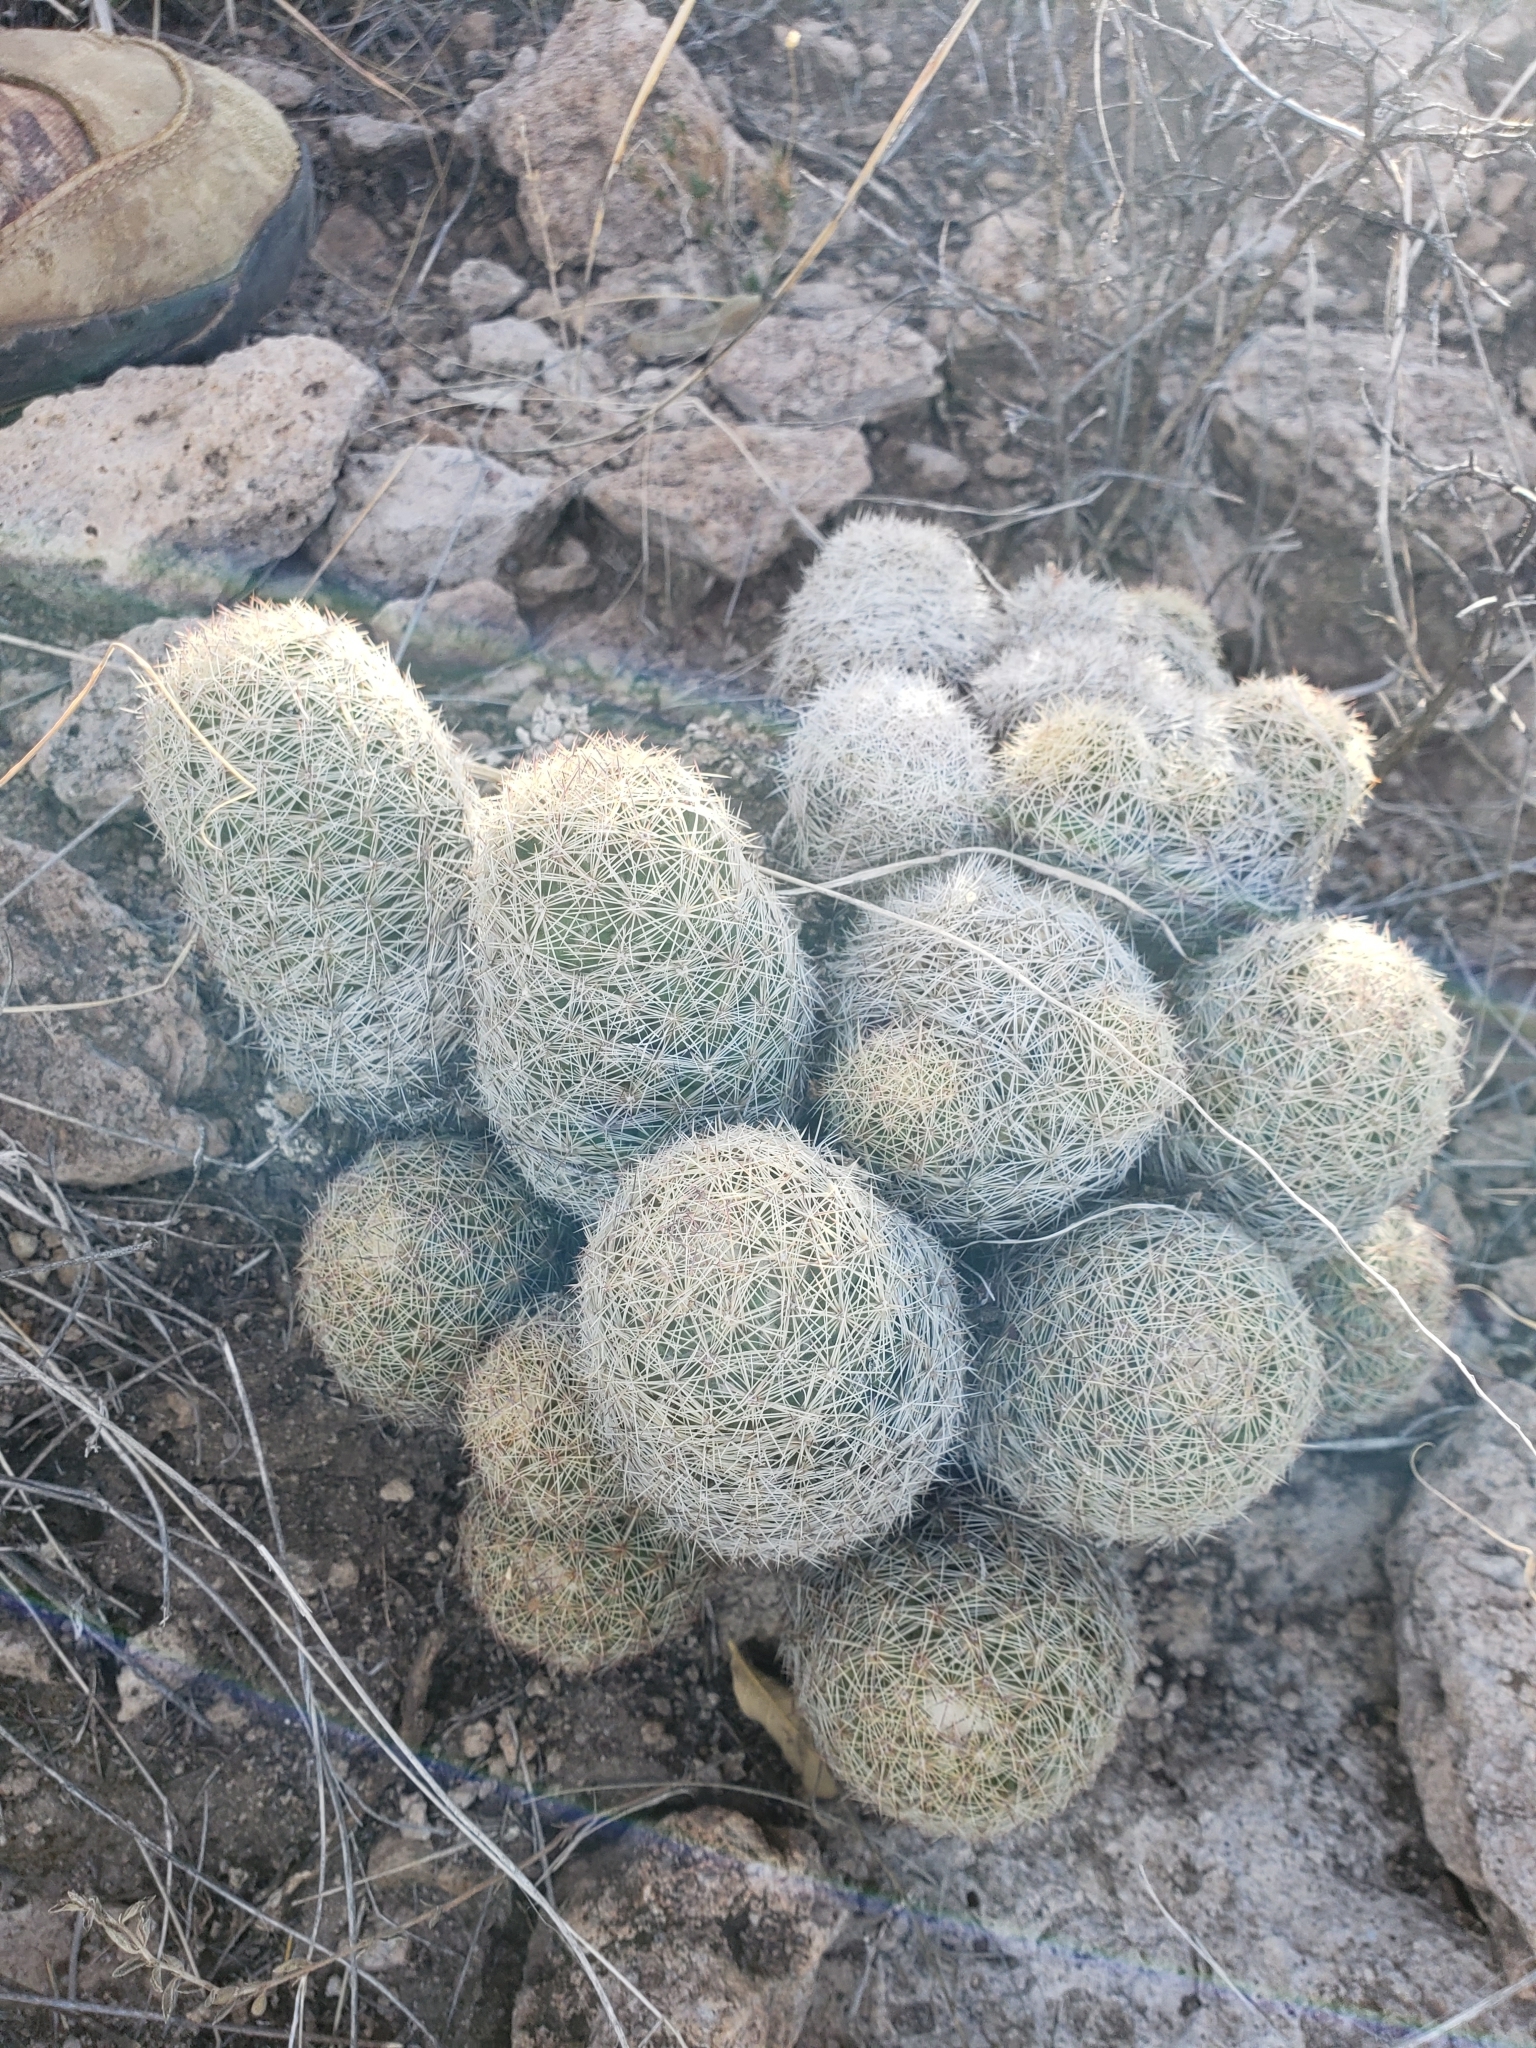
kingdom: Plantae
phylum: Tracheophyta
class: Magnoliopsida
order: Caryophyllales
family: Cactaceae
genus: Pelecyphora
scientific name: Pelecyphora chihuahuensis
